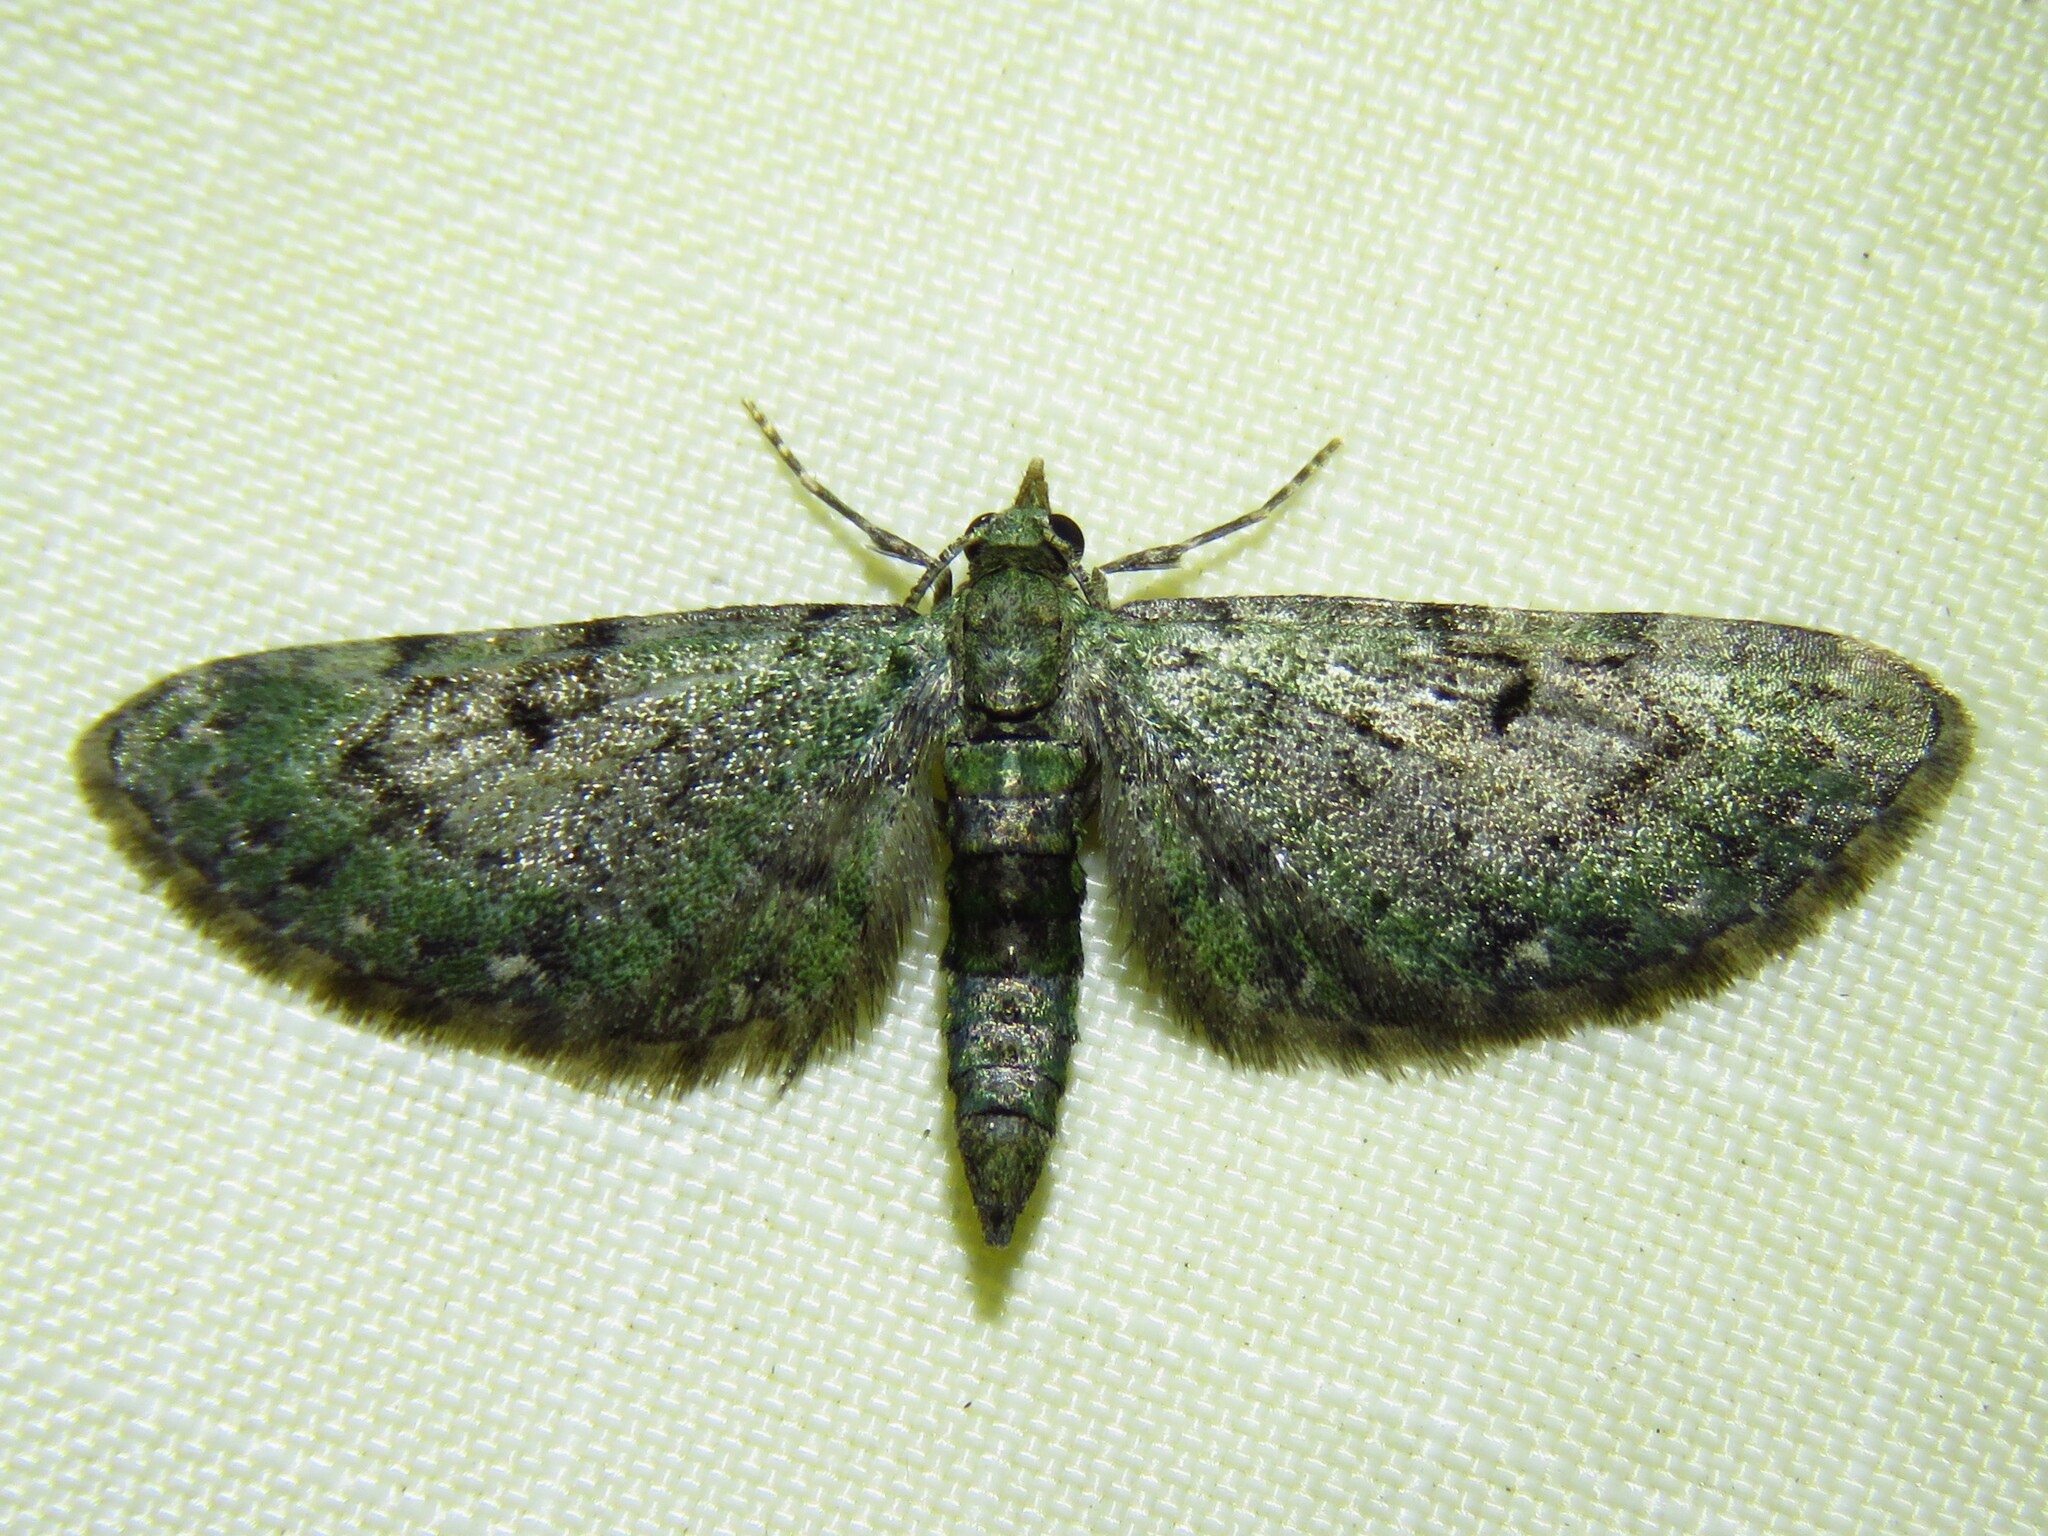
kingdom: Animalia
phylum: Arthropoda
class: Insecta
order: Lepidoptera
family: Geometridae
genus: Eupithecia
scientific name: Eupithecia miserulata
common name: Common eupithecia
